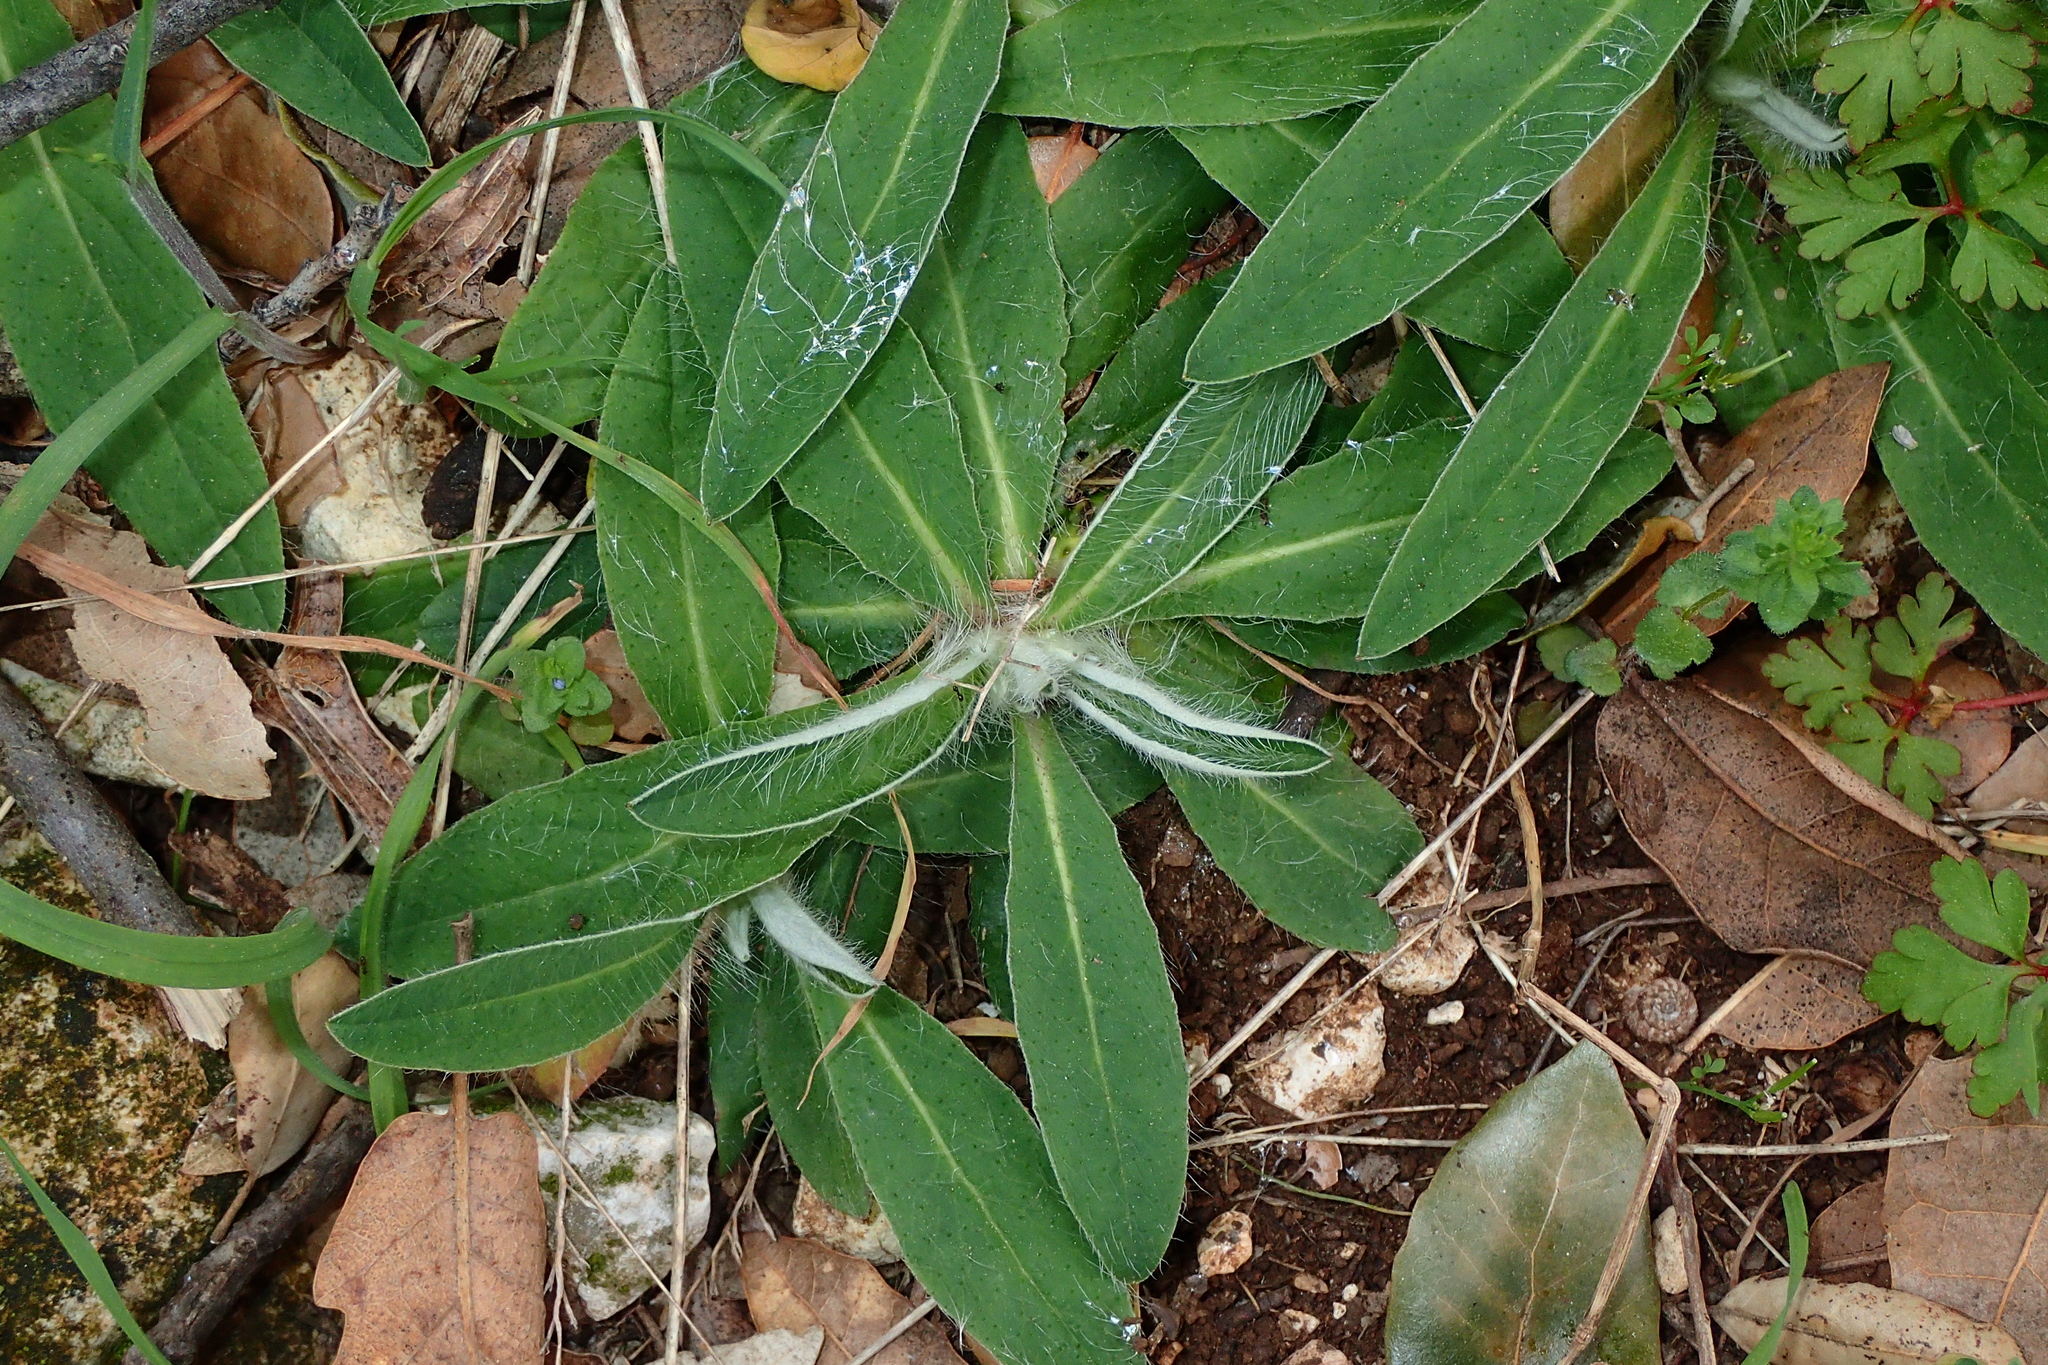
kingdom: Plantae
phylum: Tracheophyta
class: Magnoliopsida
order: Asterales
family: Asteraceae
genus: Pilosella
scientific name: Pilosella officinarum
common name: Mouse-ear hawkweed
